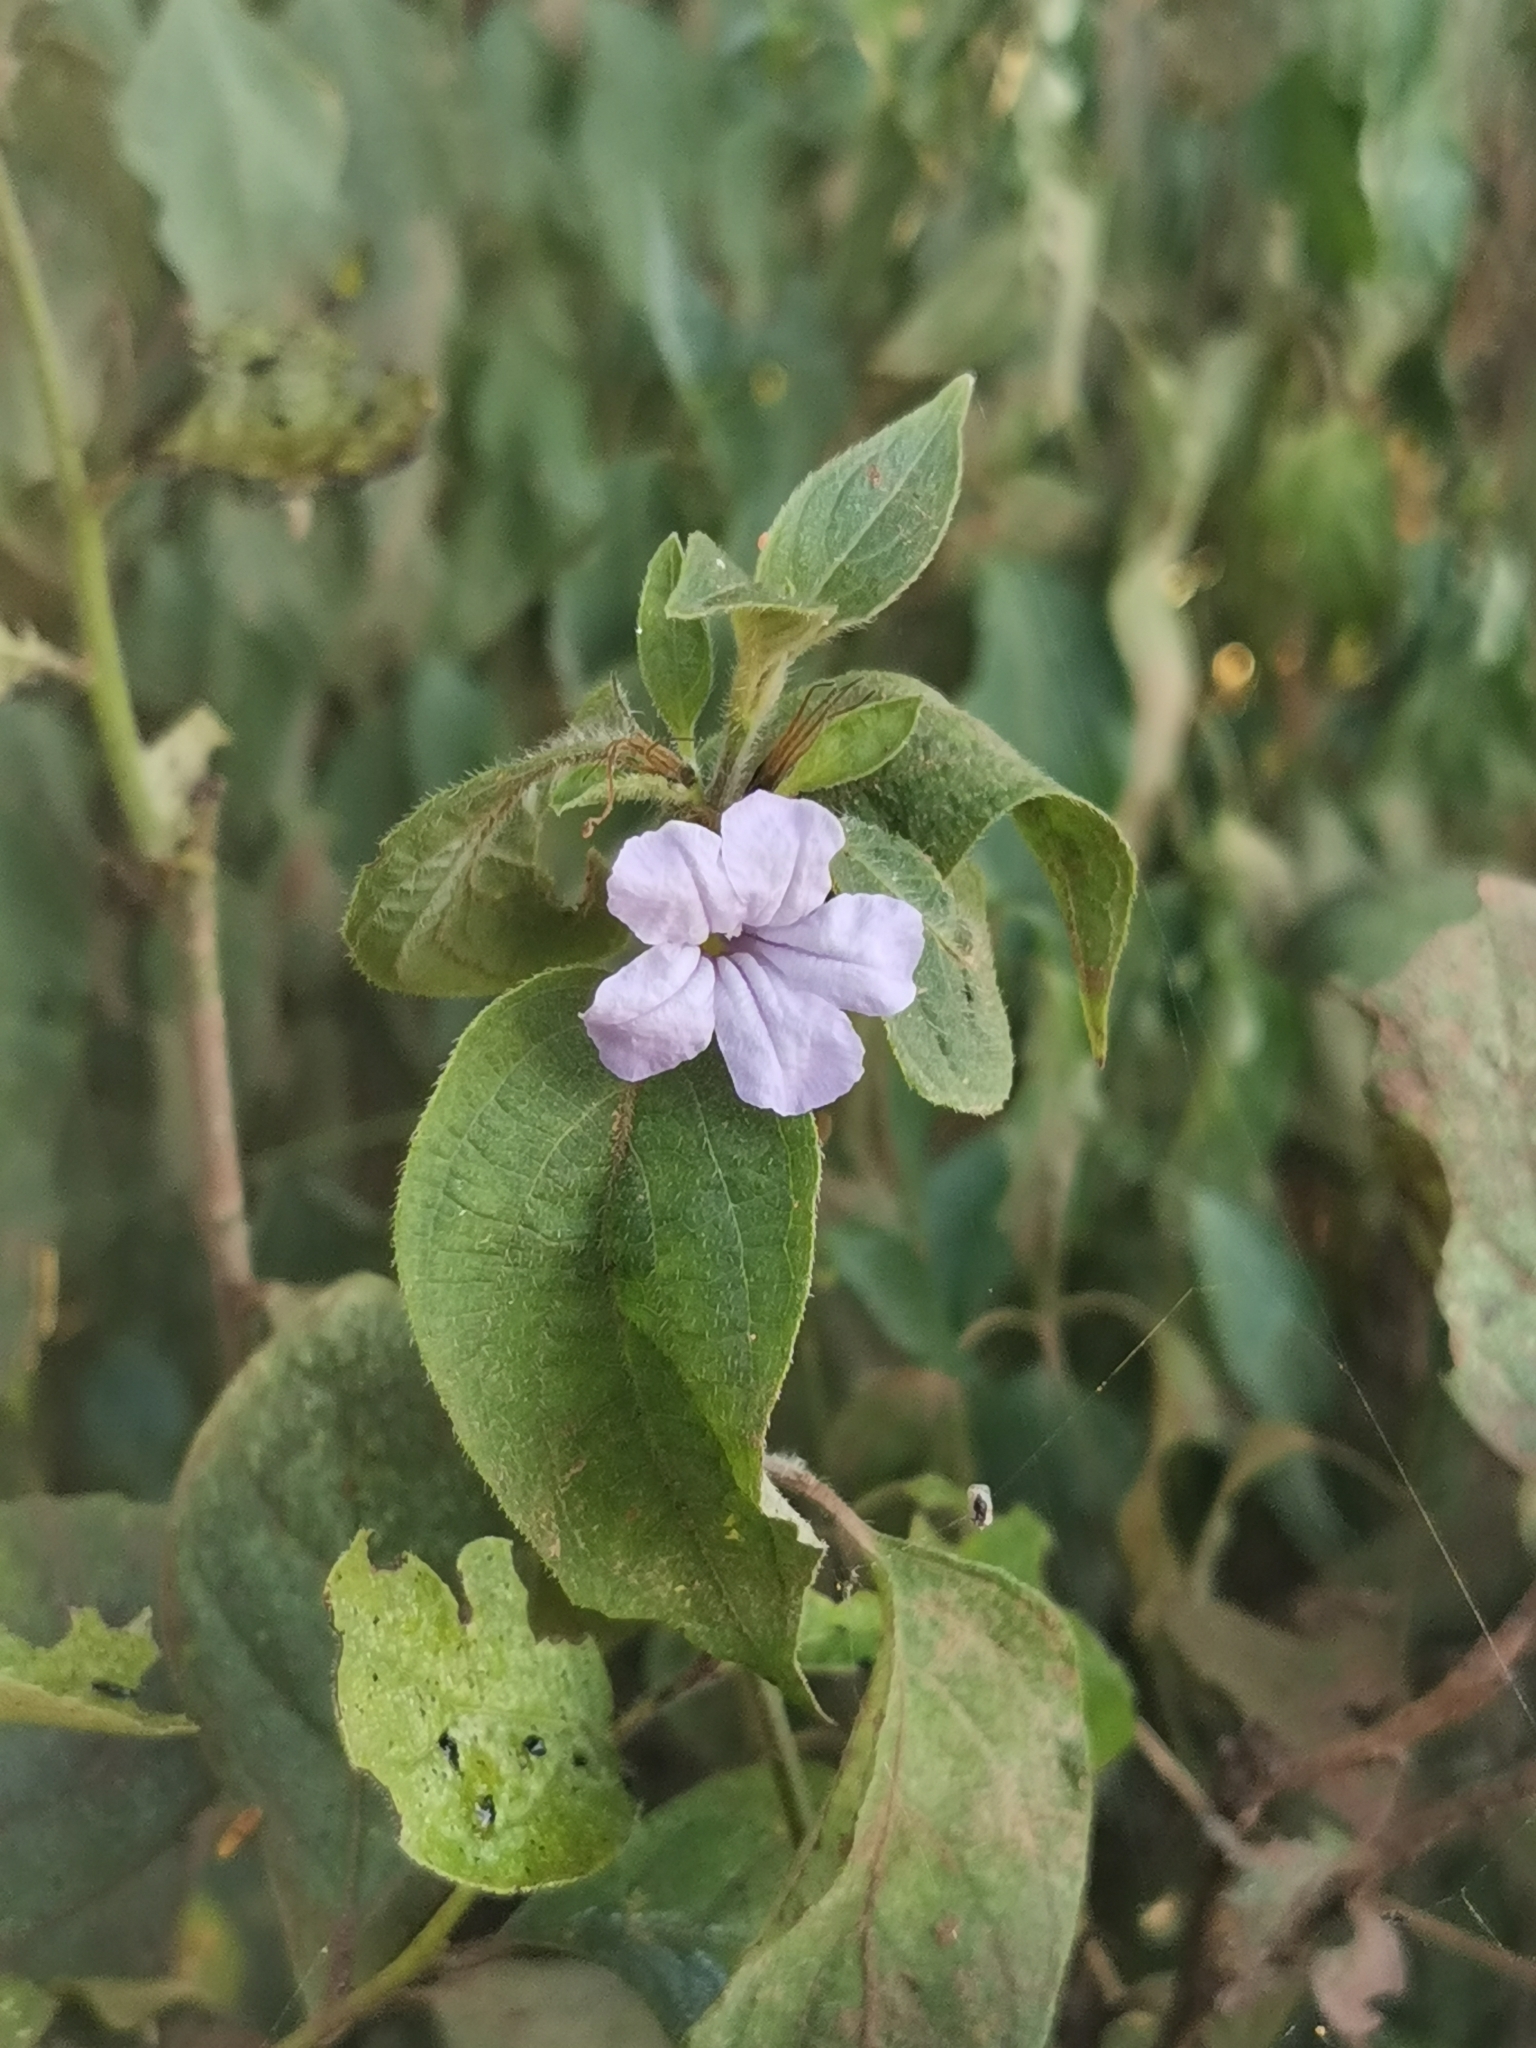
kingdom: Plantae
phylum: Tracheophyta
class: Magnoliopsida
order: Lamiales
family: Acanthaceae
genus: Ruellia
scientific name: Ruellia prostrata
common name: Prostrate wild petunia
